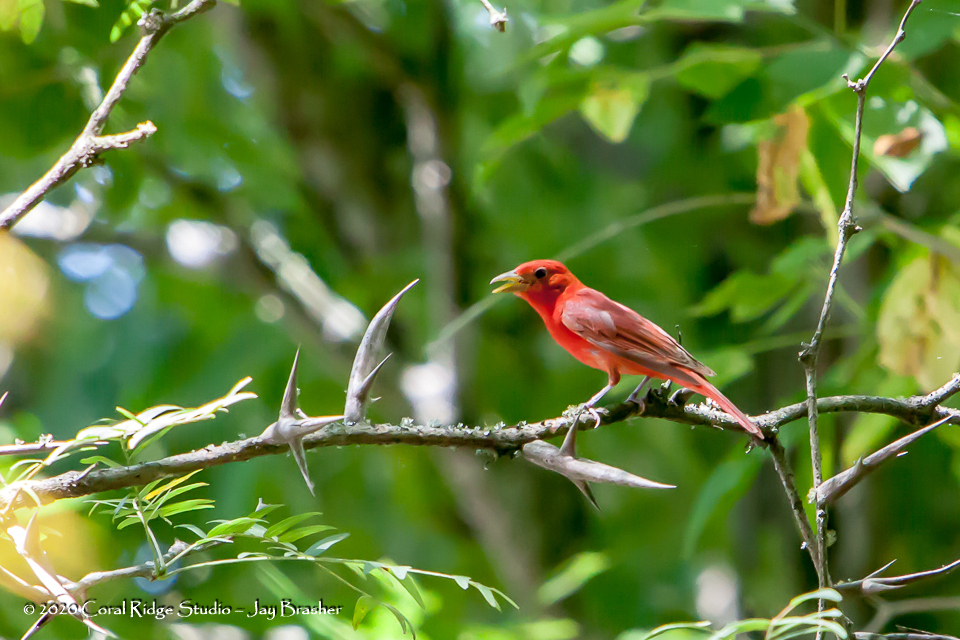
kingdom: Animalia
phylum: Chordata
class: Aves
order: Passeriformes
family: Cardinalidae
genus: Piranga
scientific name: Piranga rubra
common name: Summer tanager
